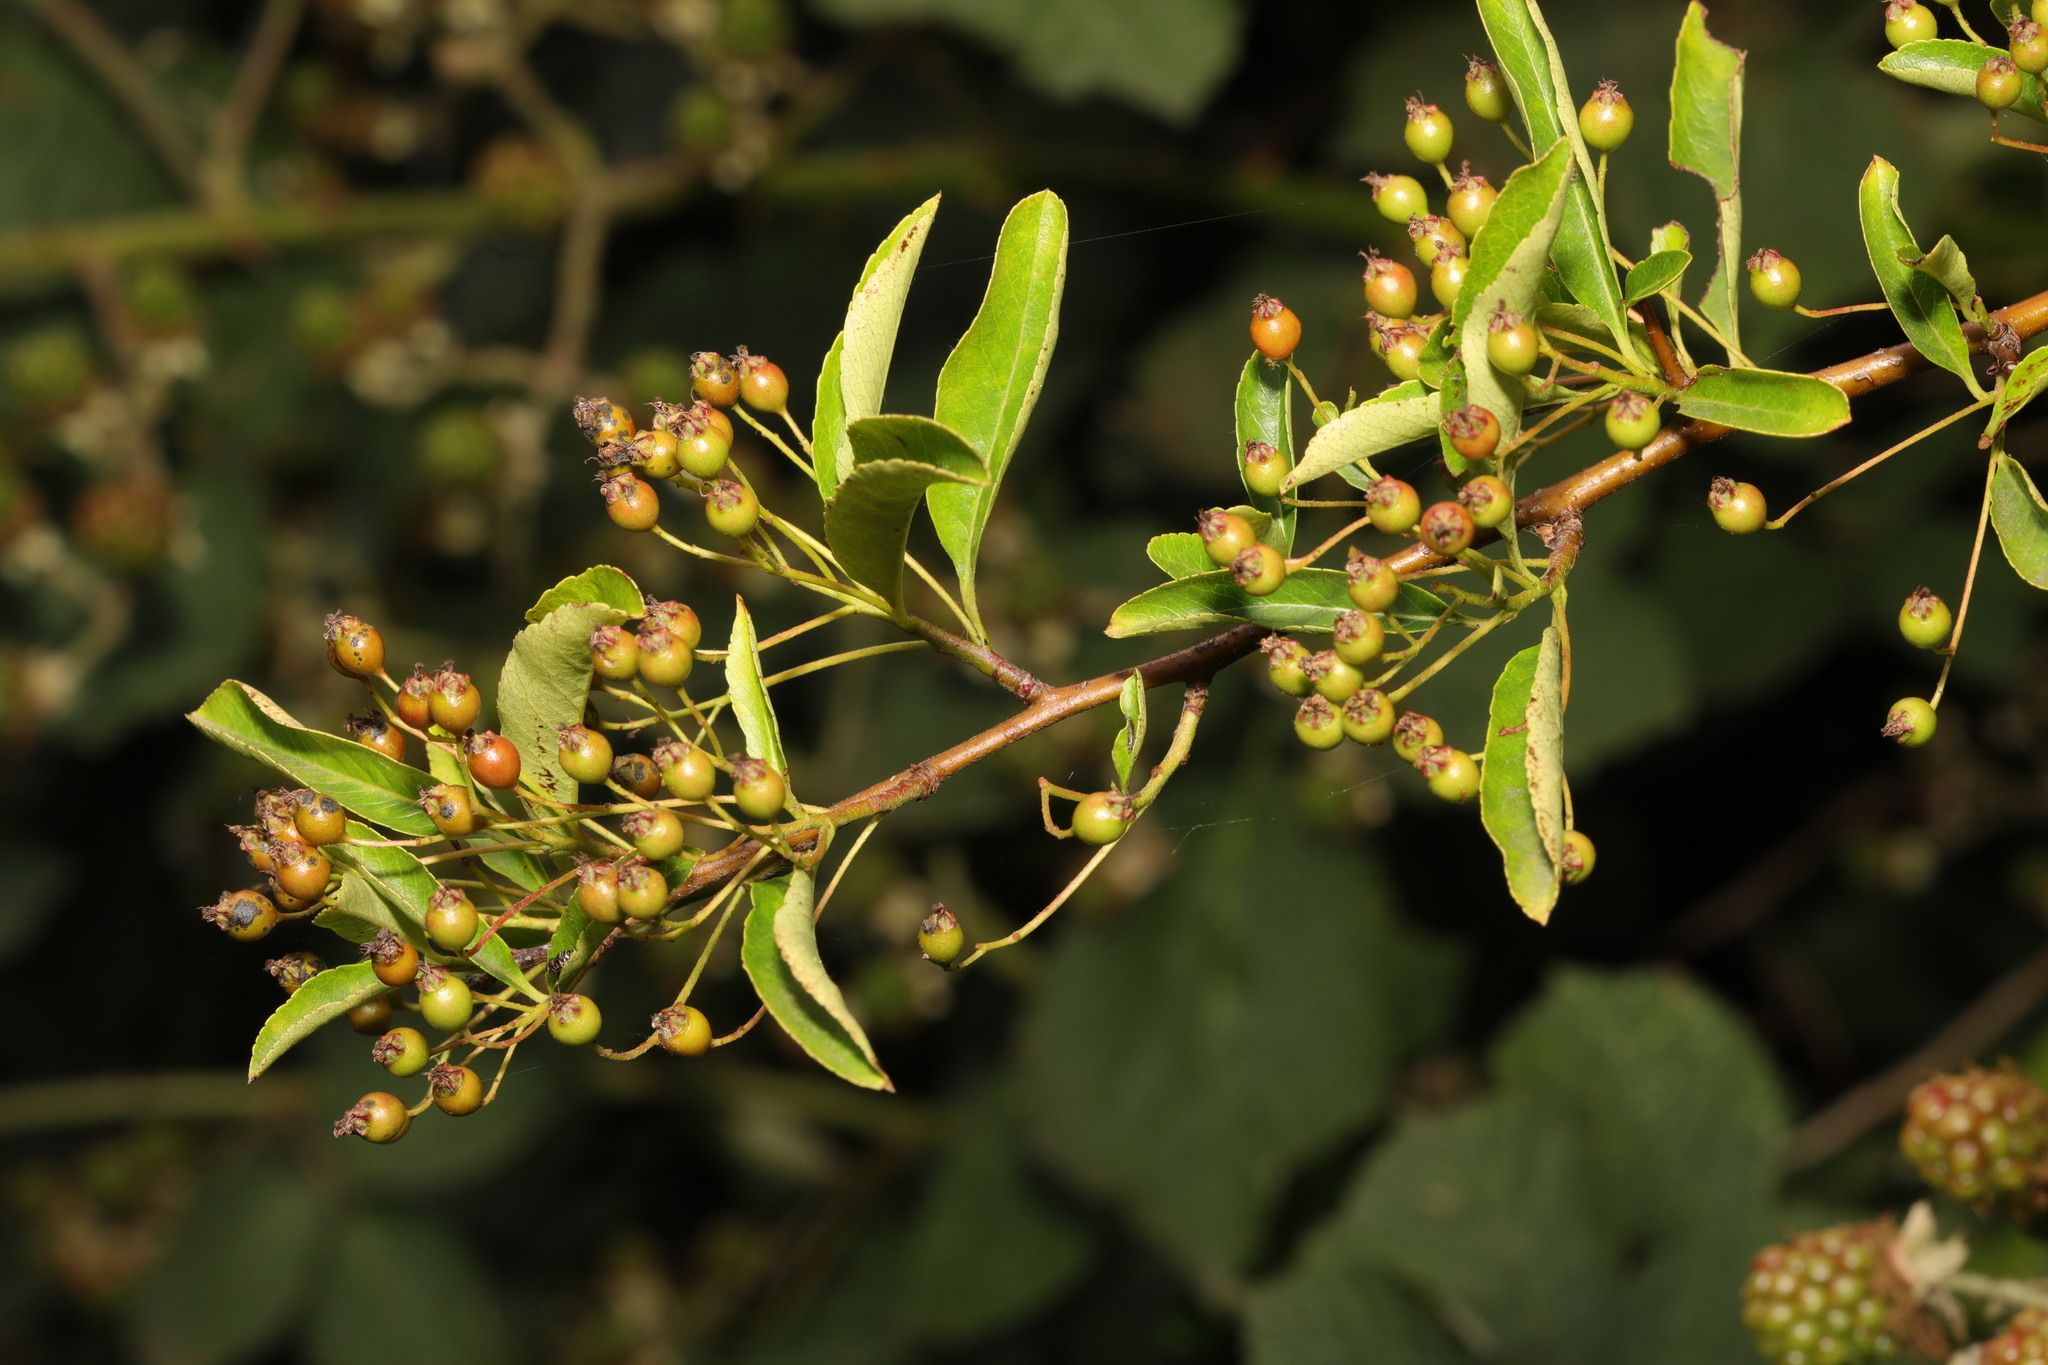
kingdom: Plantae
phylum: Tracheophyta
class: Magnoliopsida
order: Rosales
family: Rosaceae
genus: Pyracantha
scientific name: Pyracantha coccinea
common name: Firethorn
